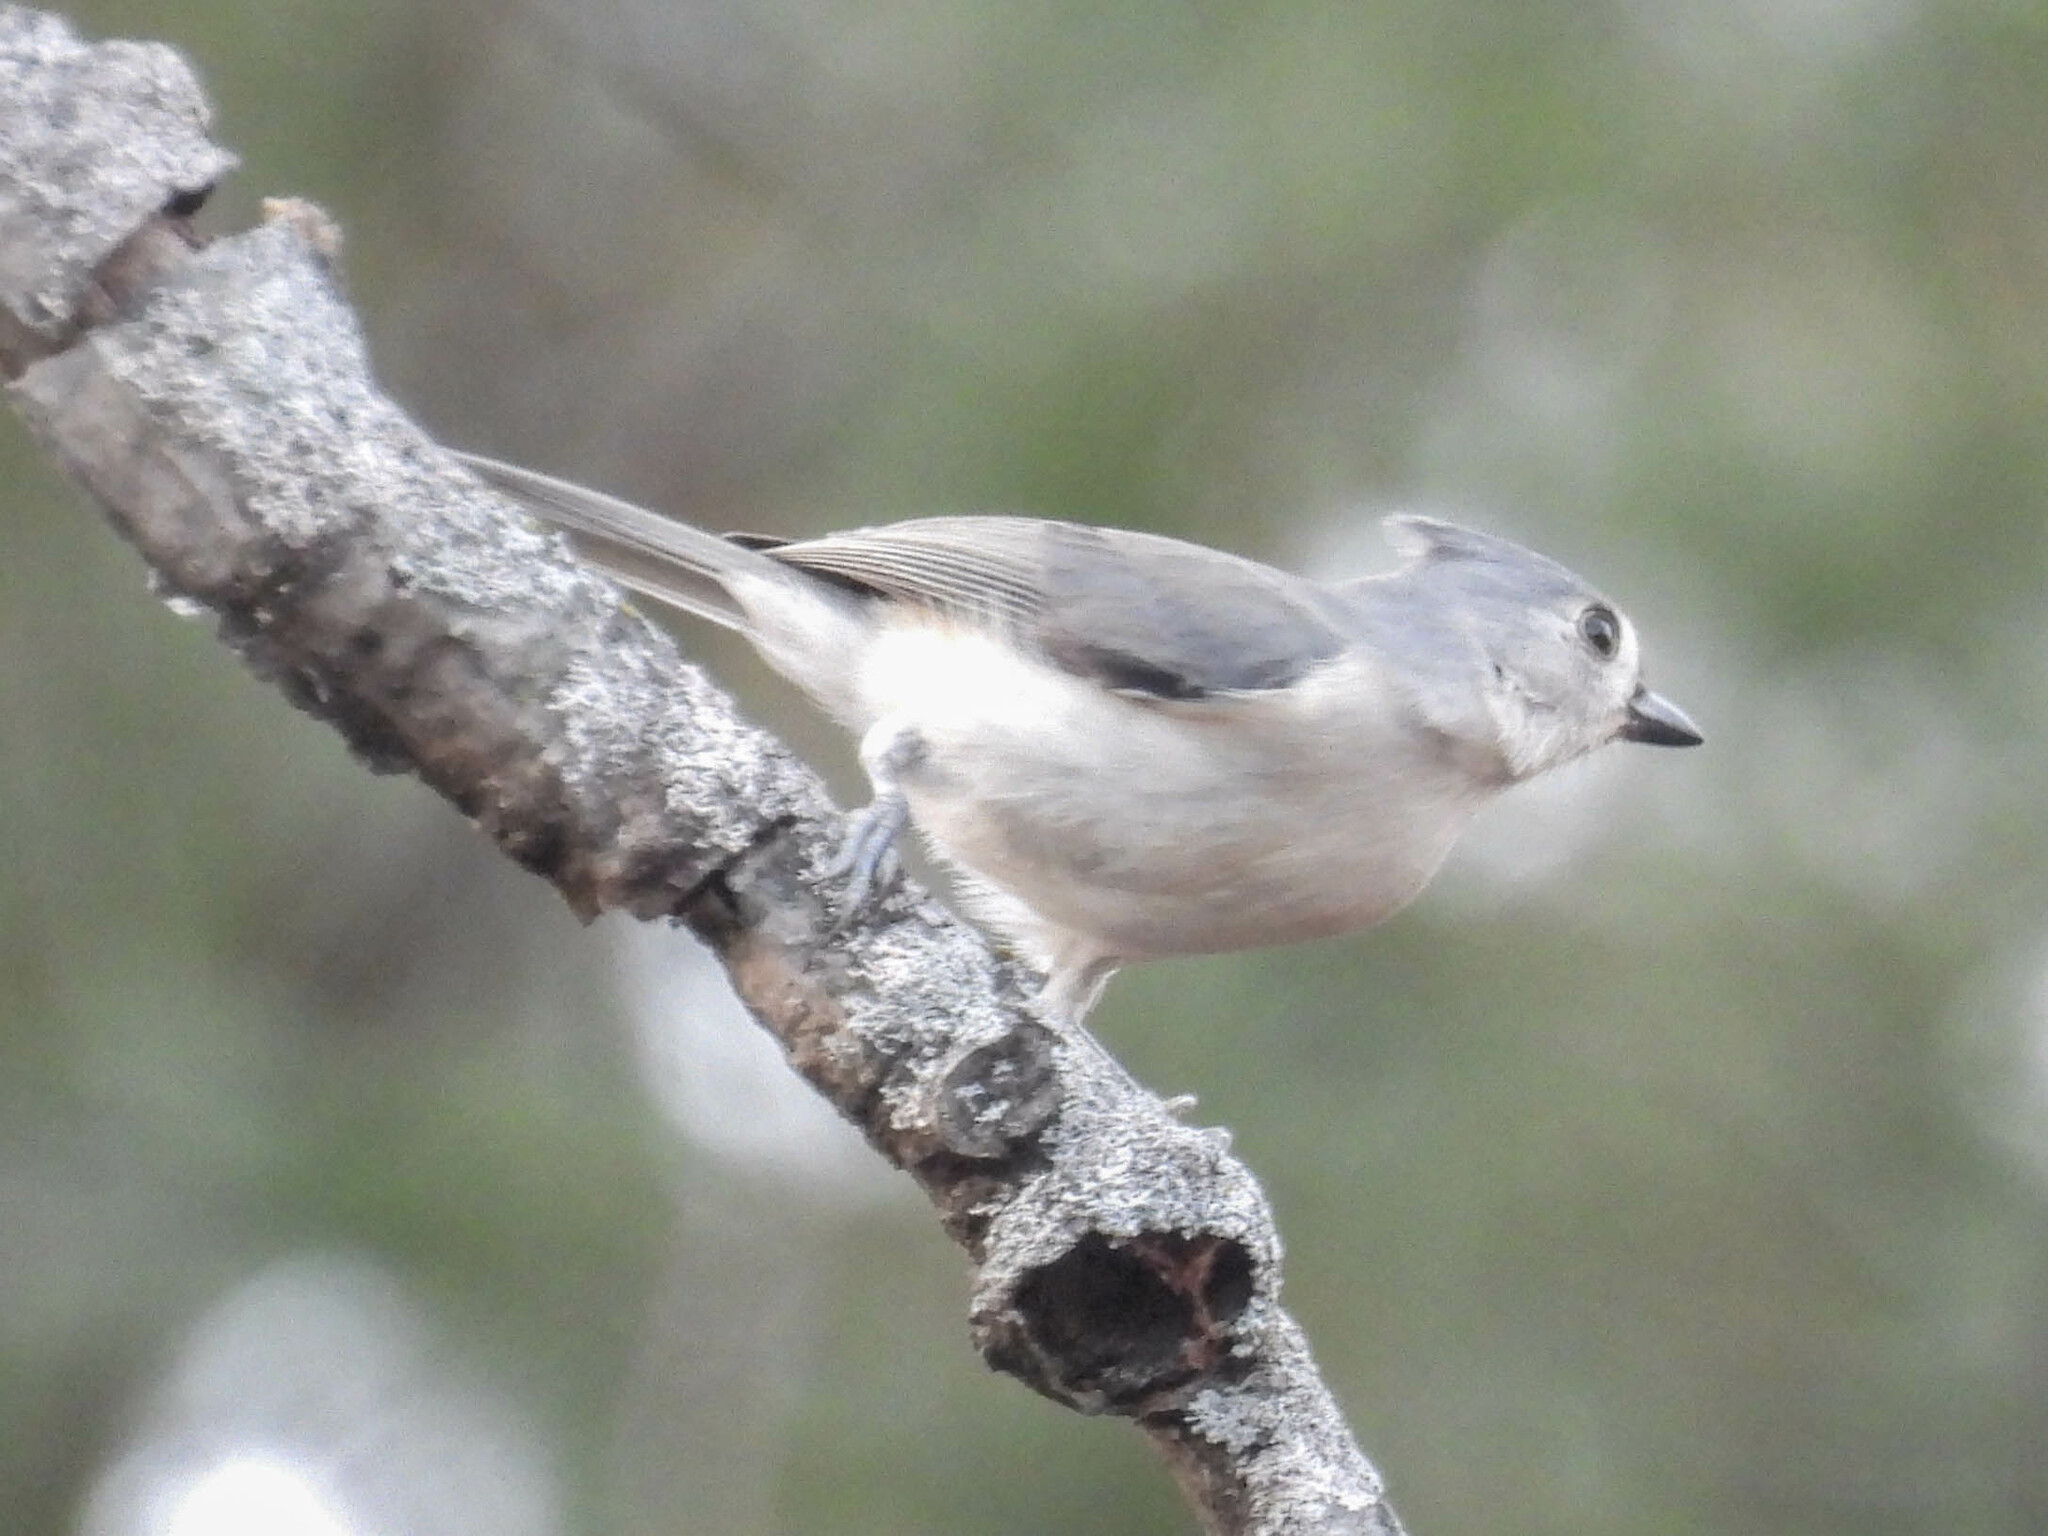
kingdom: Animalia
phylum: Chordata
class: Aves
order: Passeriformes
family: Paridae
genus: Baeolophus
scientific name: Baeolophus bicolor
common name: Tufted titmouse
